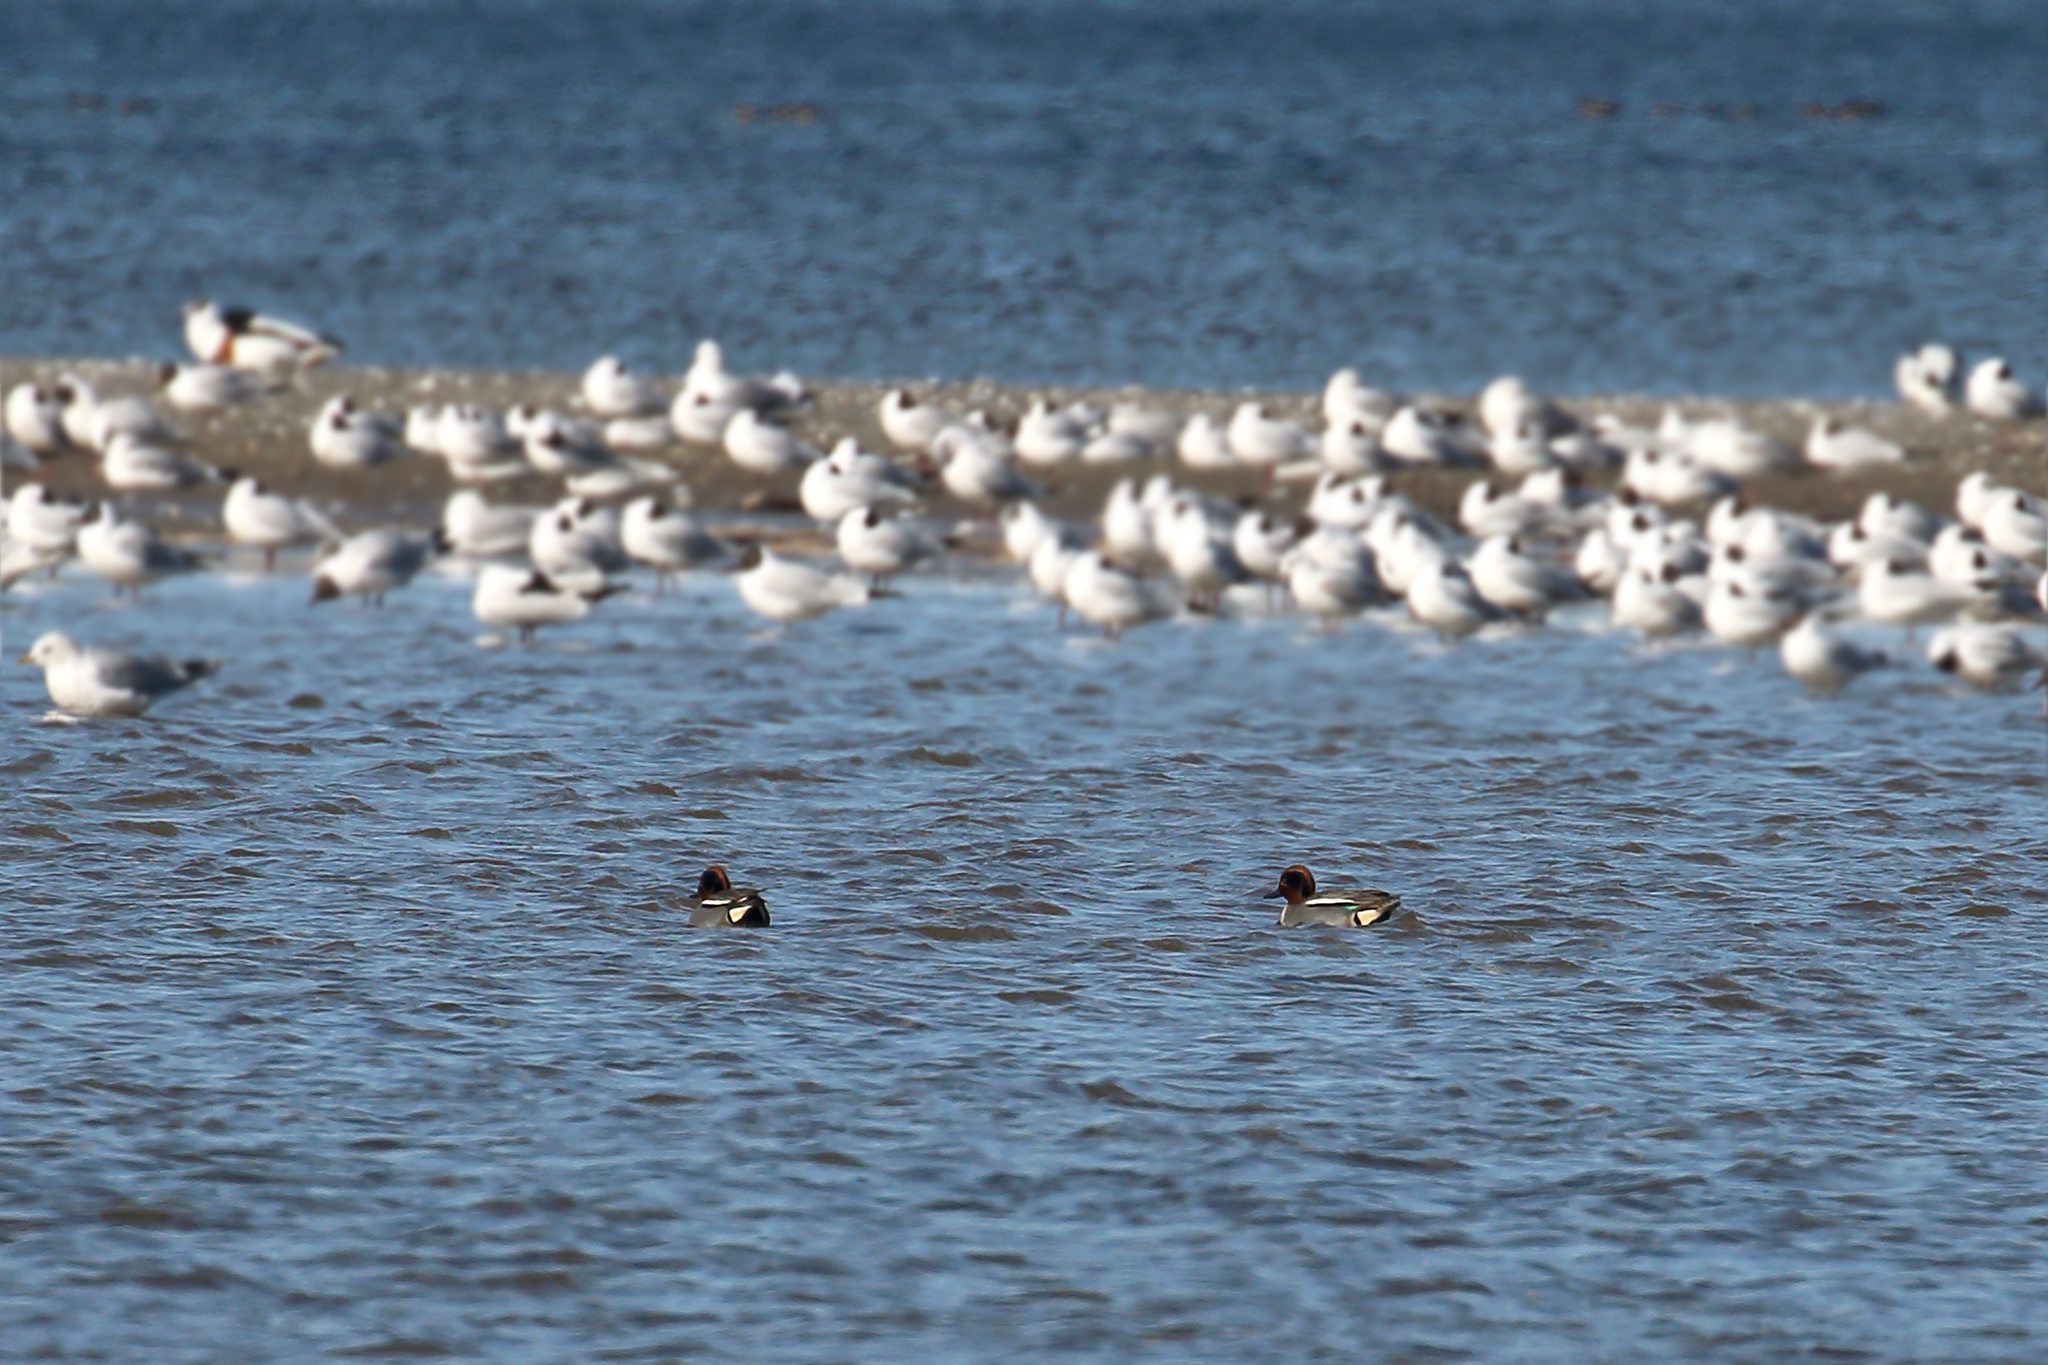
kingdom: Animalia
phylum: Chordata
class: Aves
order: Anseriformes
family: Anatidae
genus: Anas
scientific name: Anas crecca
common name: Eurasian teal
